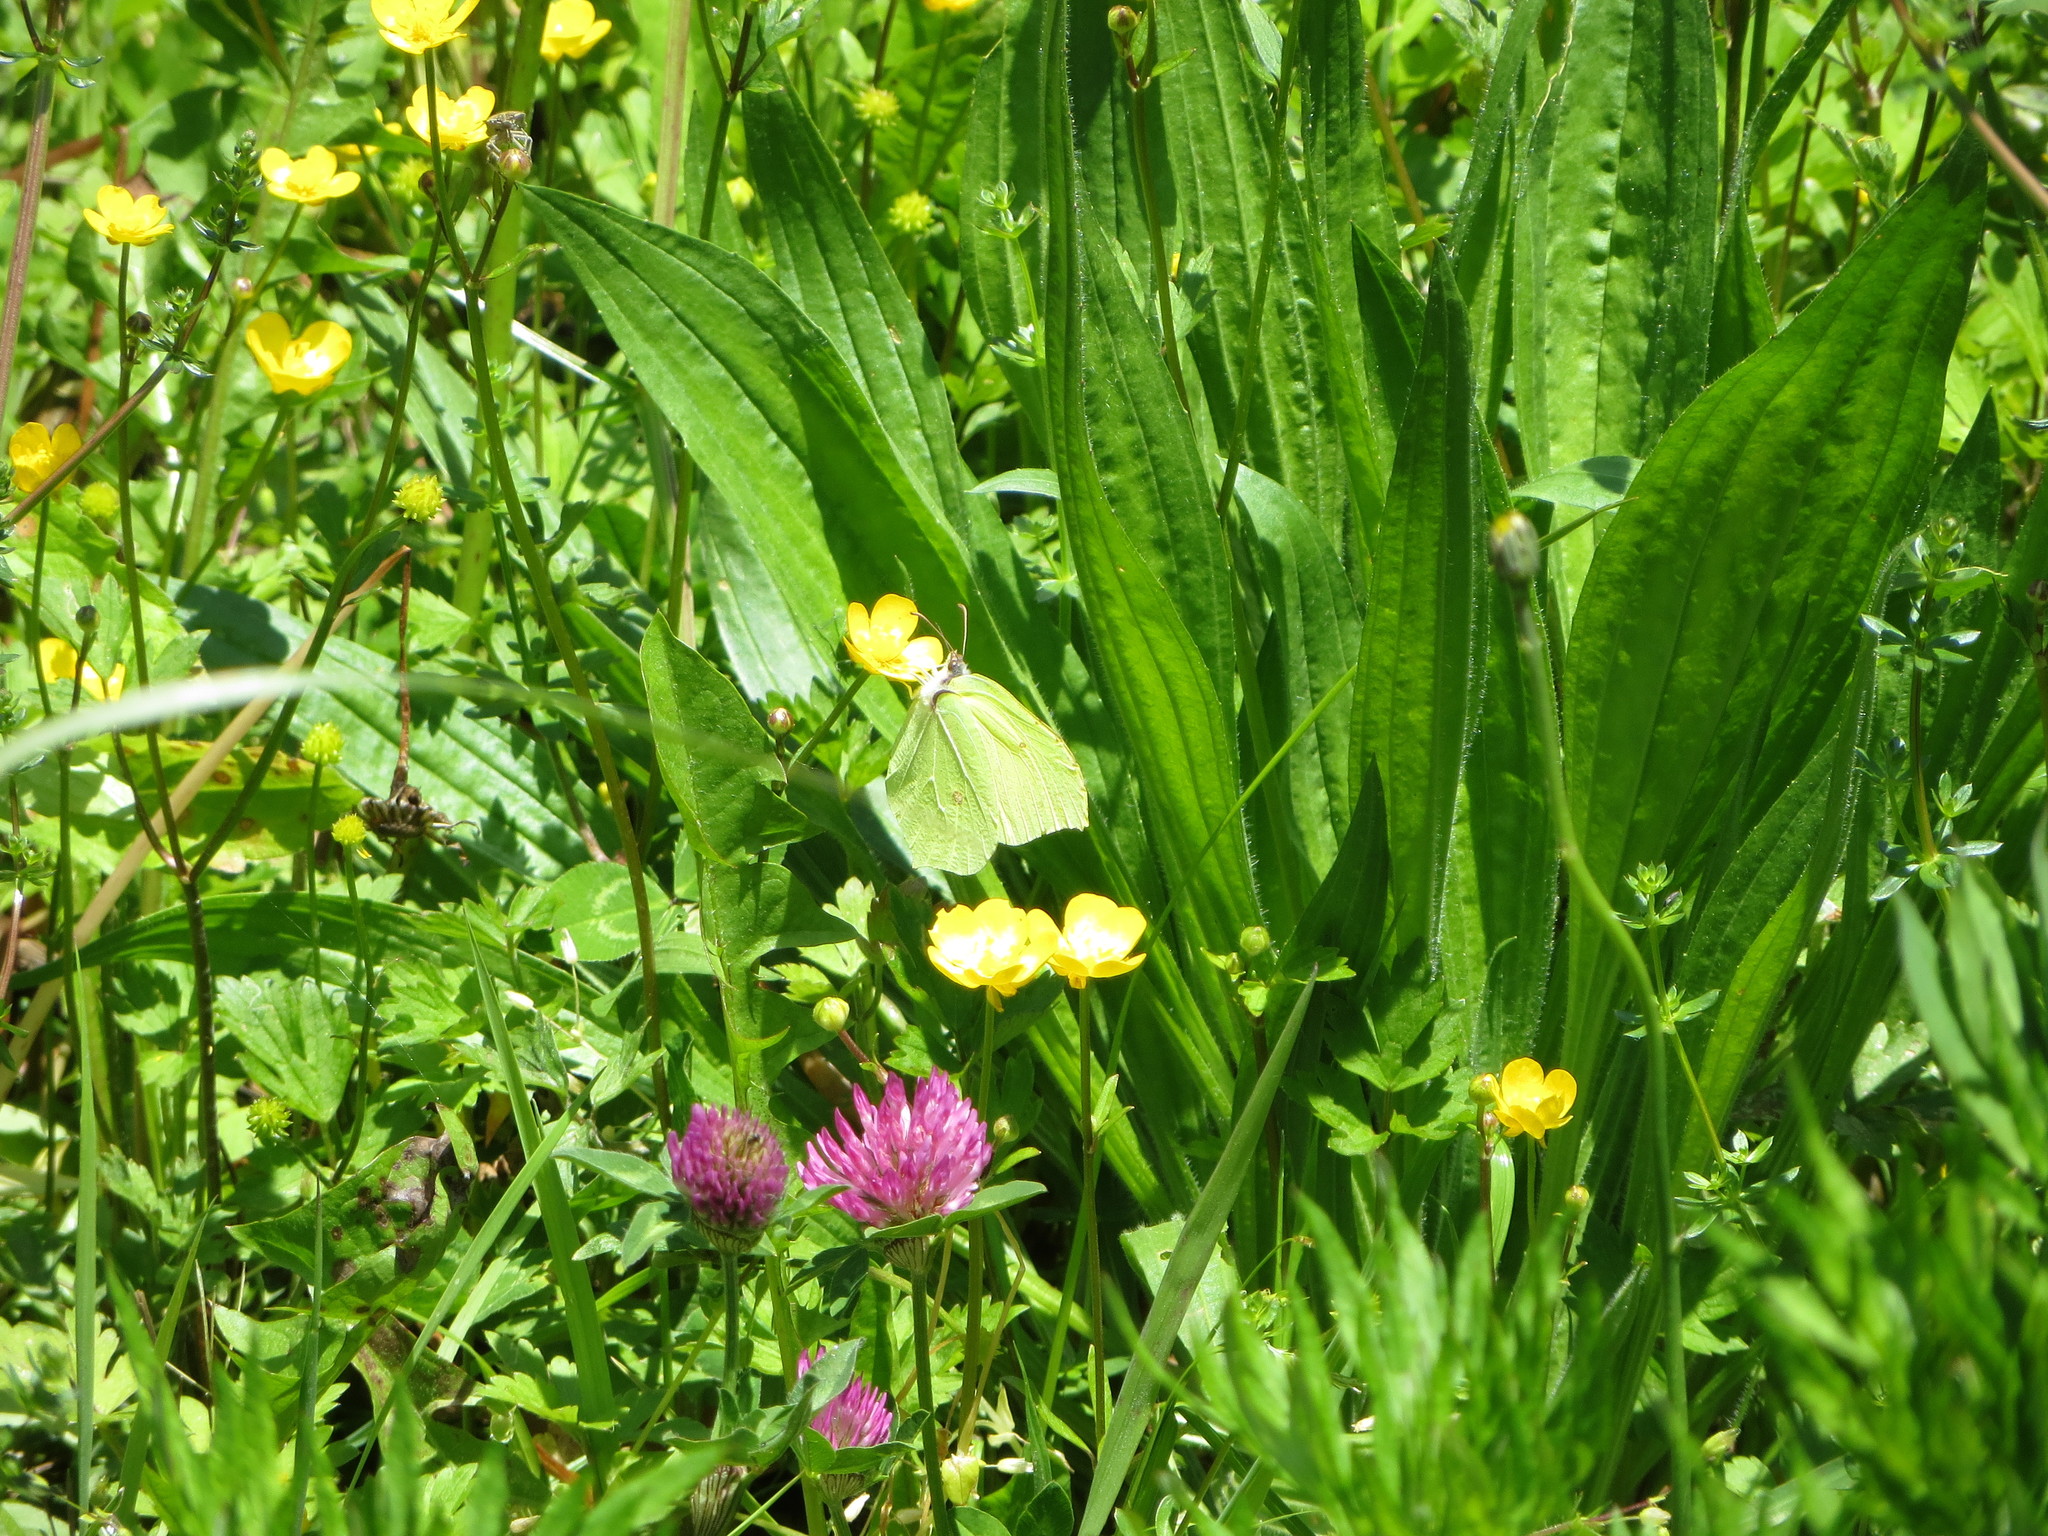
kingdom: Animalia
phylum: Arthropoda
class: Insecta
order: Lepidoptera
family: Pieridae
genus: Gonepteryx
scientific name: Gonepteryx rhamni
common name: Brimstone
